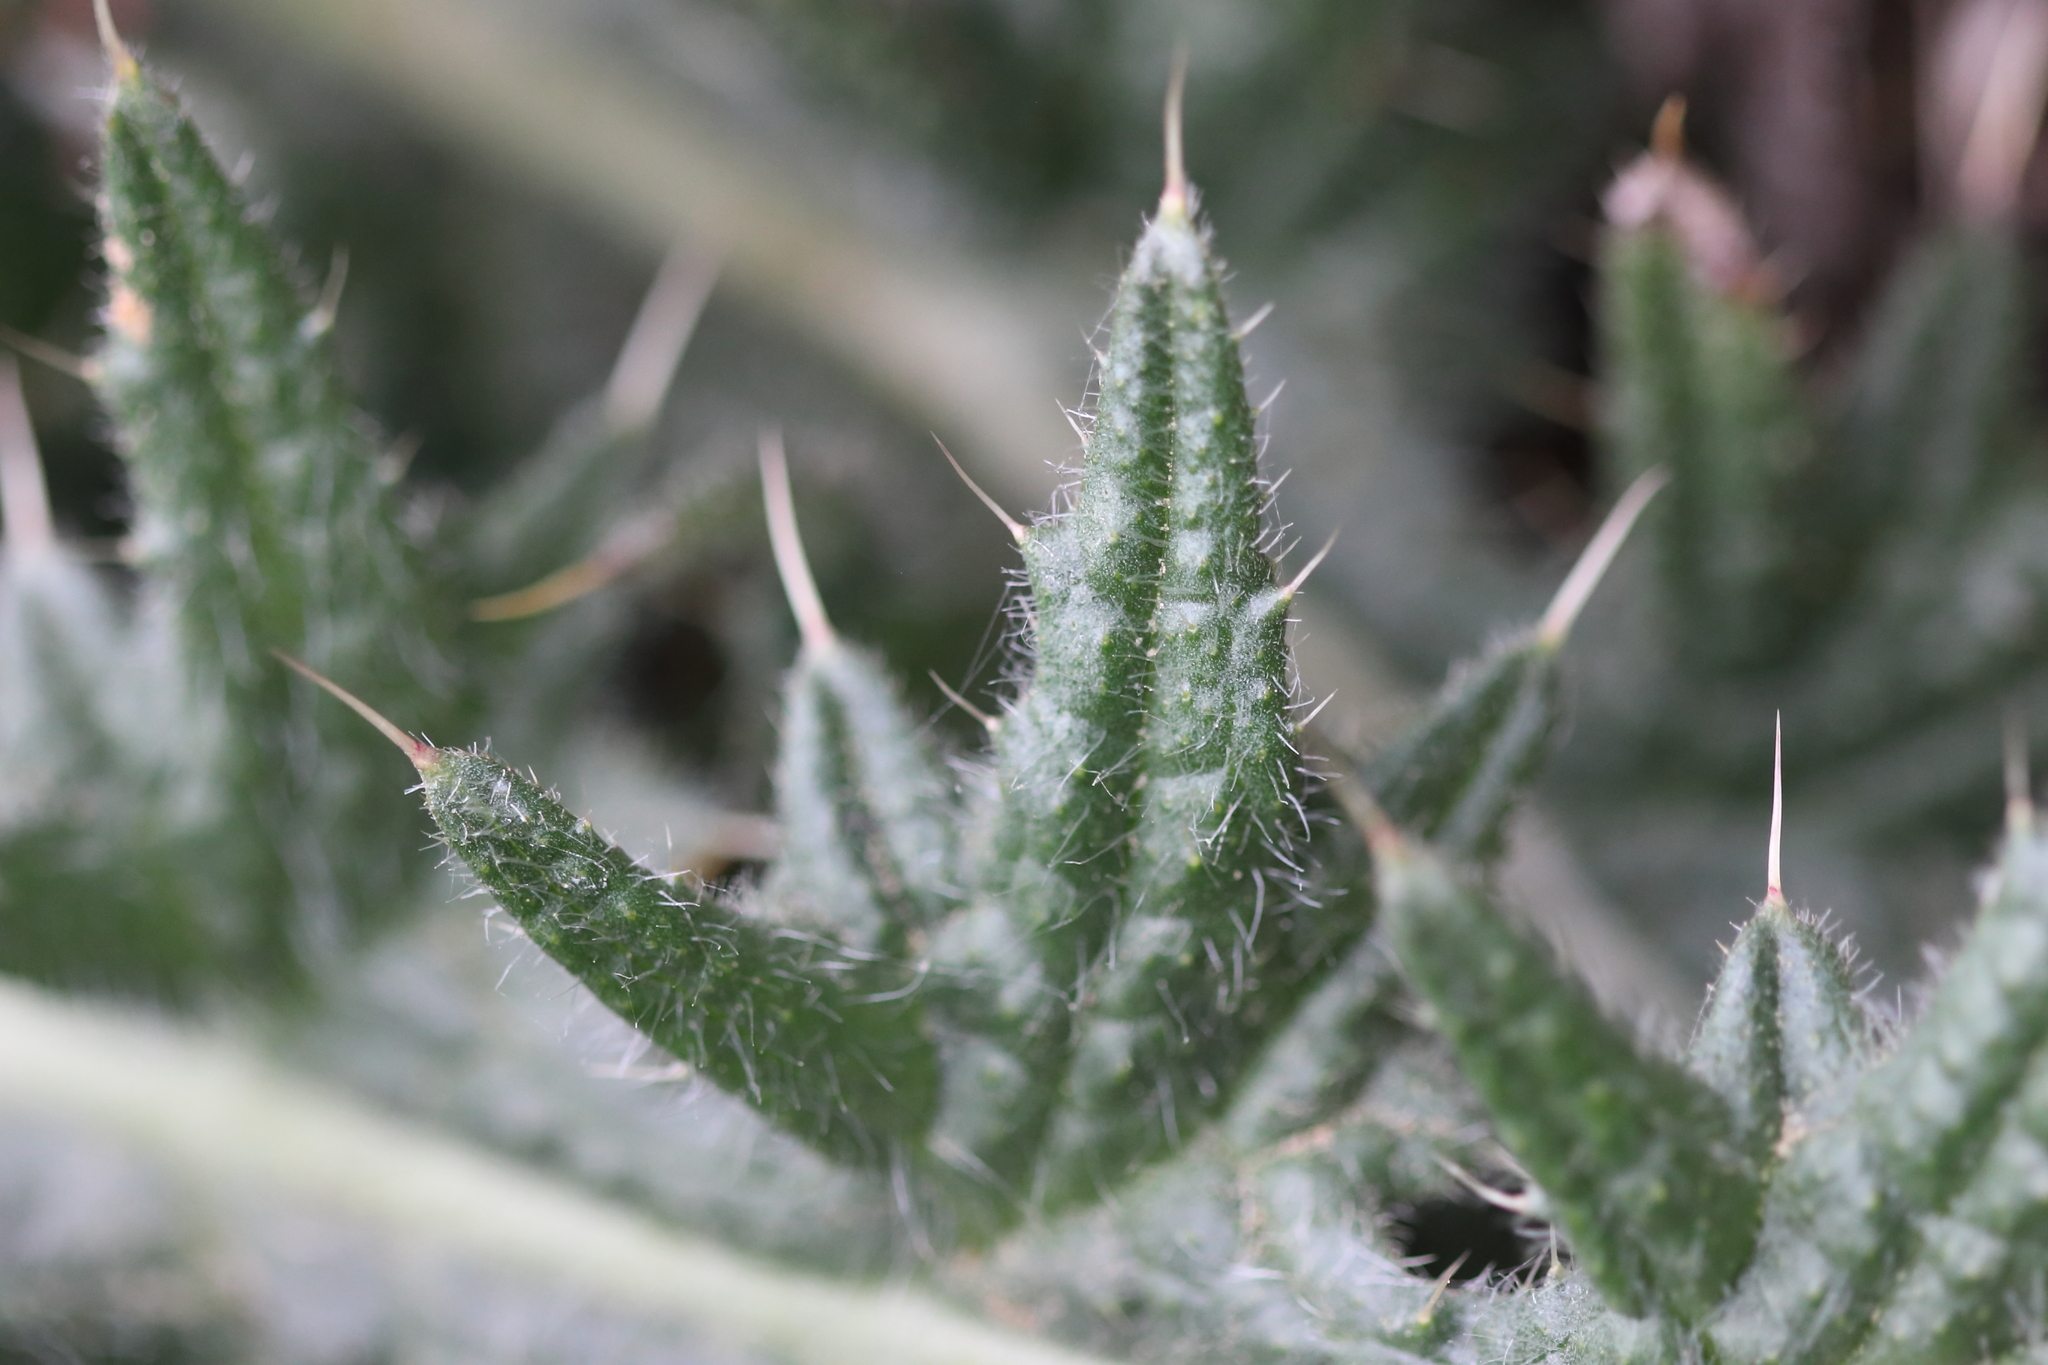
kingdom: Plantae
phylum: Tracheophyta
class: Magnoliopsida
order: Asterales
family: Asteraceae
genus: Cirsium
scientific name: Cirsium vulgare
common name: Bull thistle
